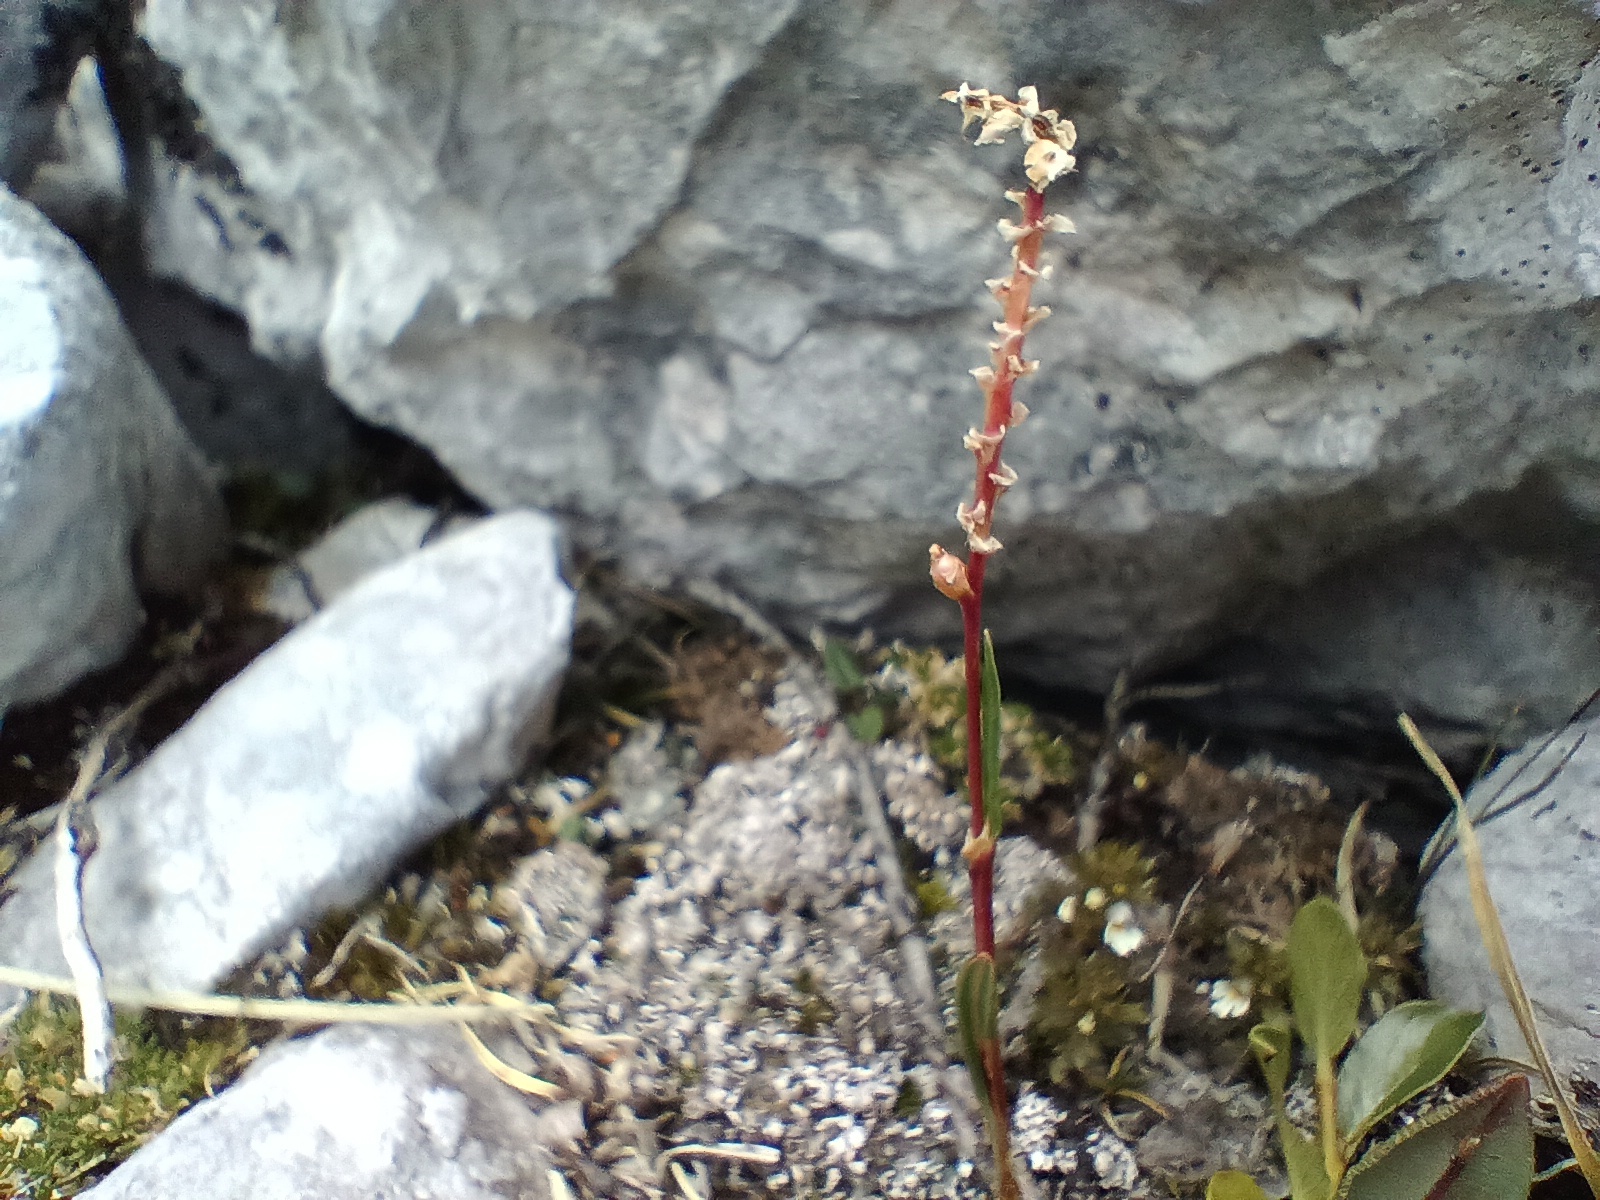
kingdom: Plantae
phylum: Tracheophyta
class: Magnoliopsida
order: Caryophyllales
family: Polygonaceae
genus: Bistorta
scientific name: Bistorta vivipara
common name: Alpine bistort
